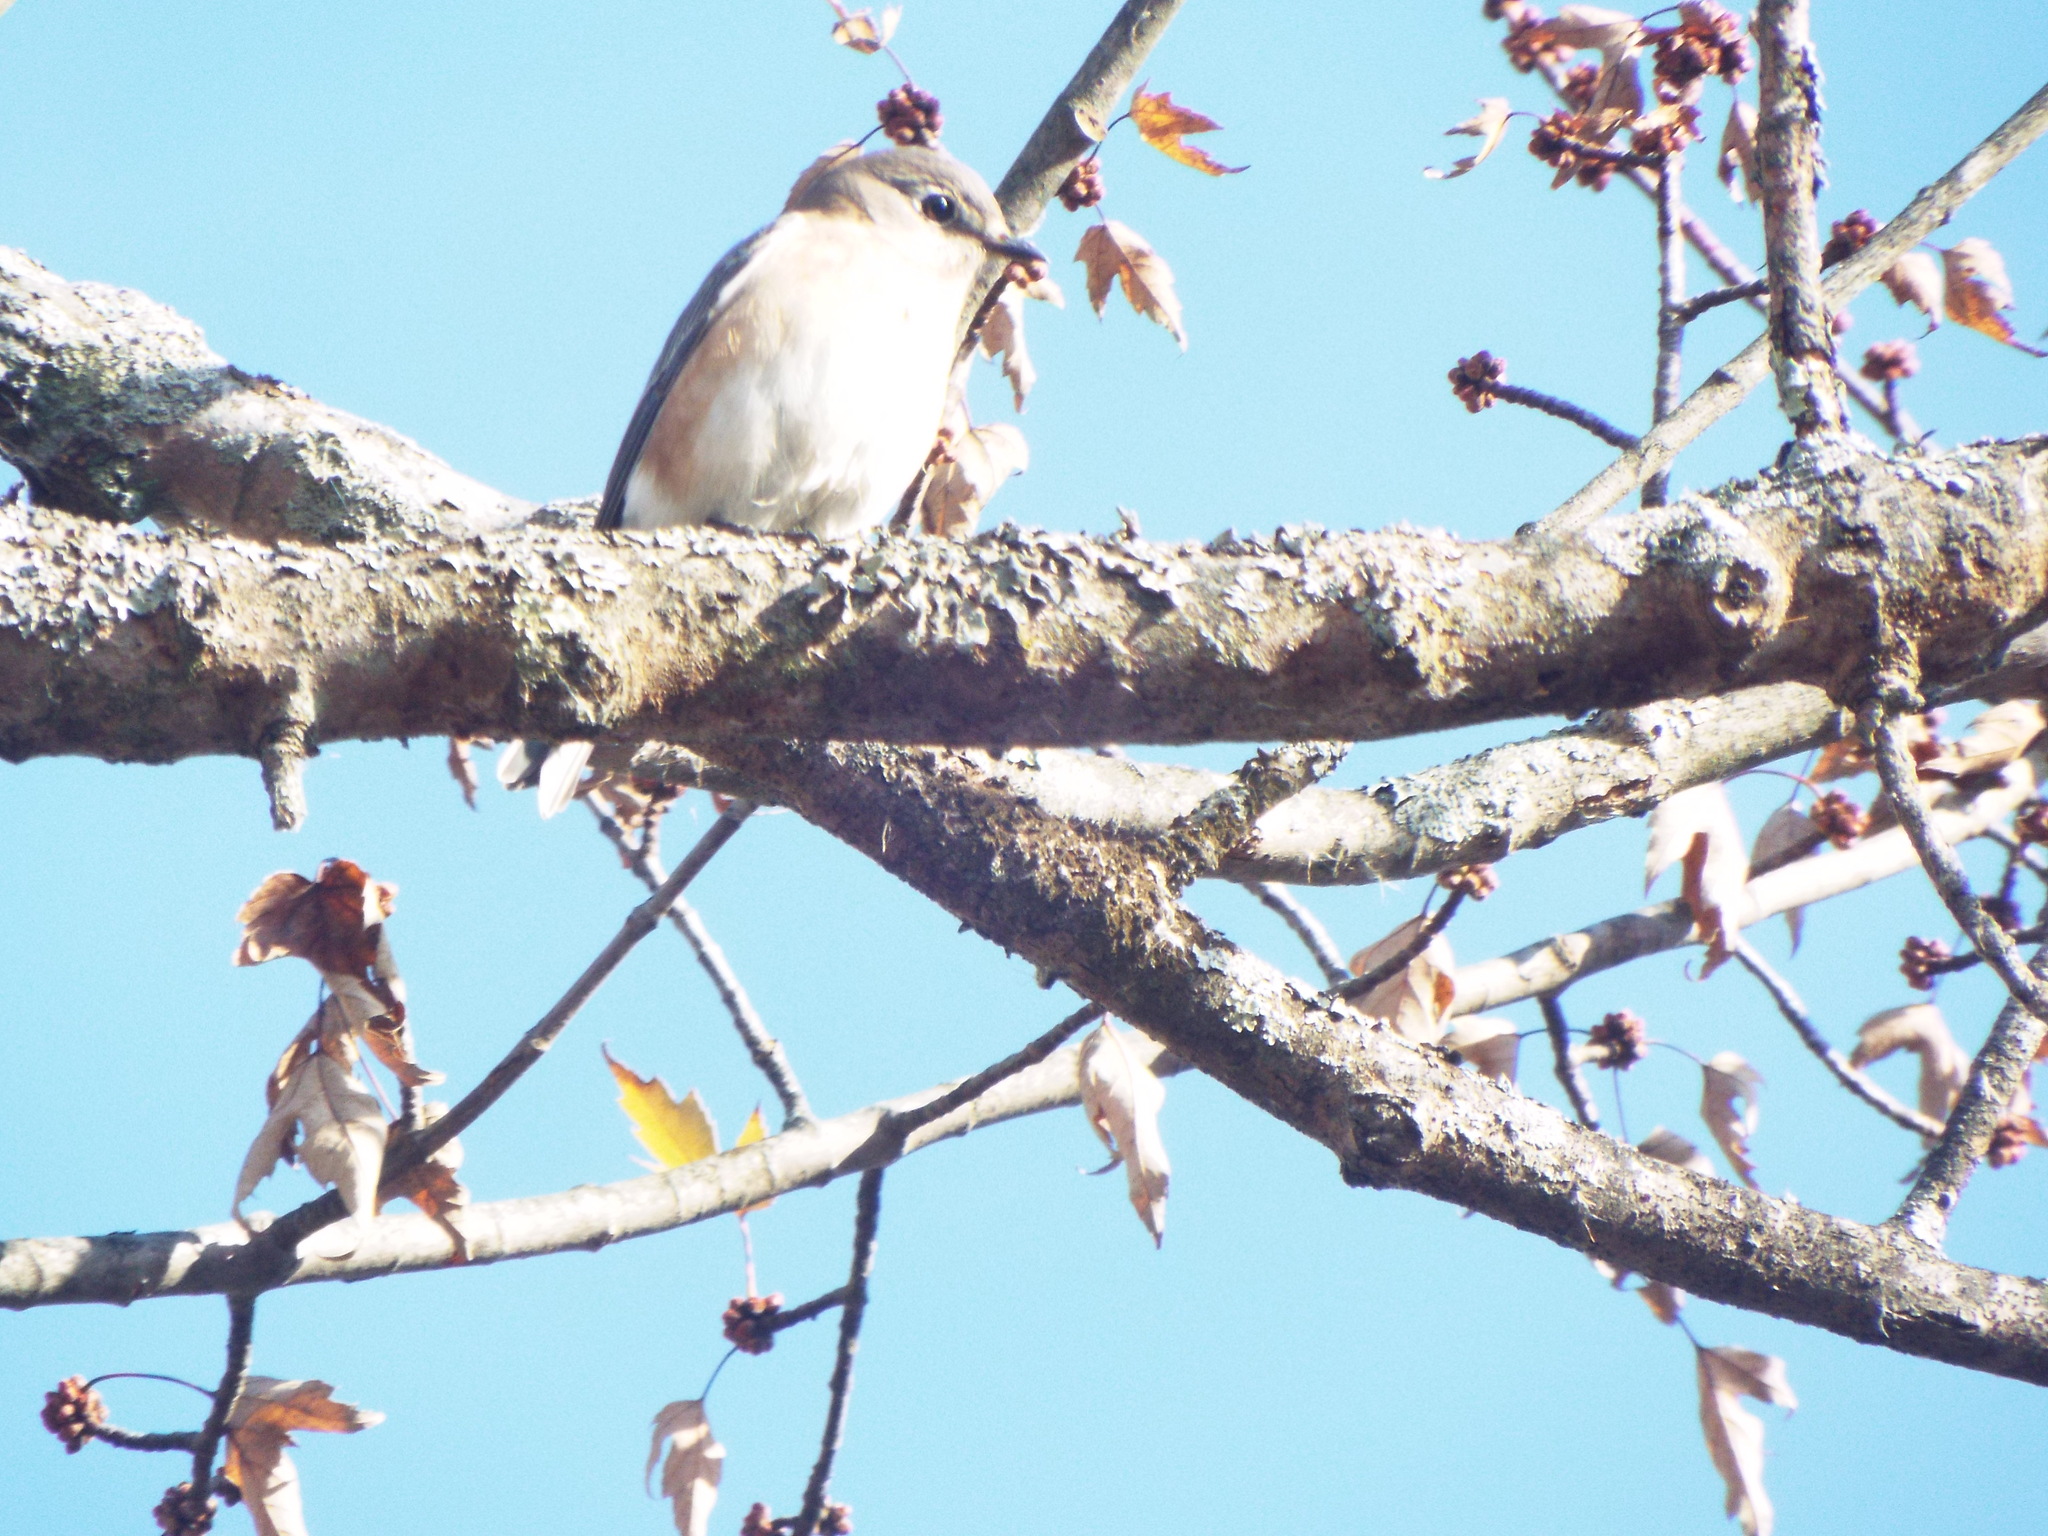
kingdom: Animalia
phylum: Chordata
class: Aves
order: Passeriformes
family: Turdidae
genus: Sialia
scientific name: Sialia sialis
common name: Eastern bluebird
